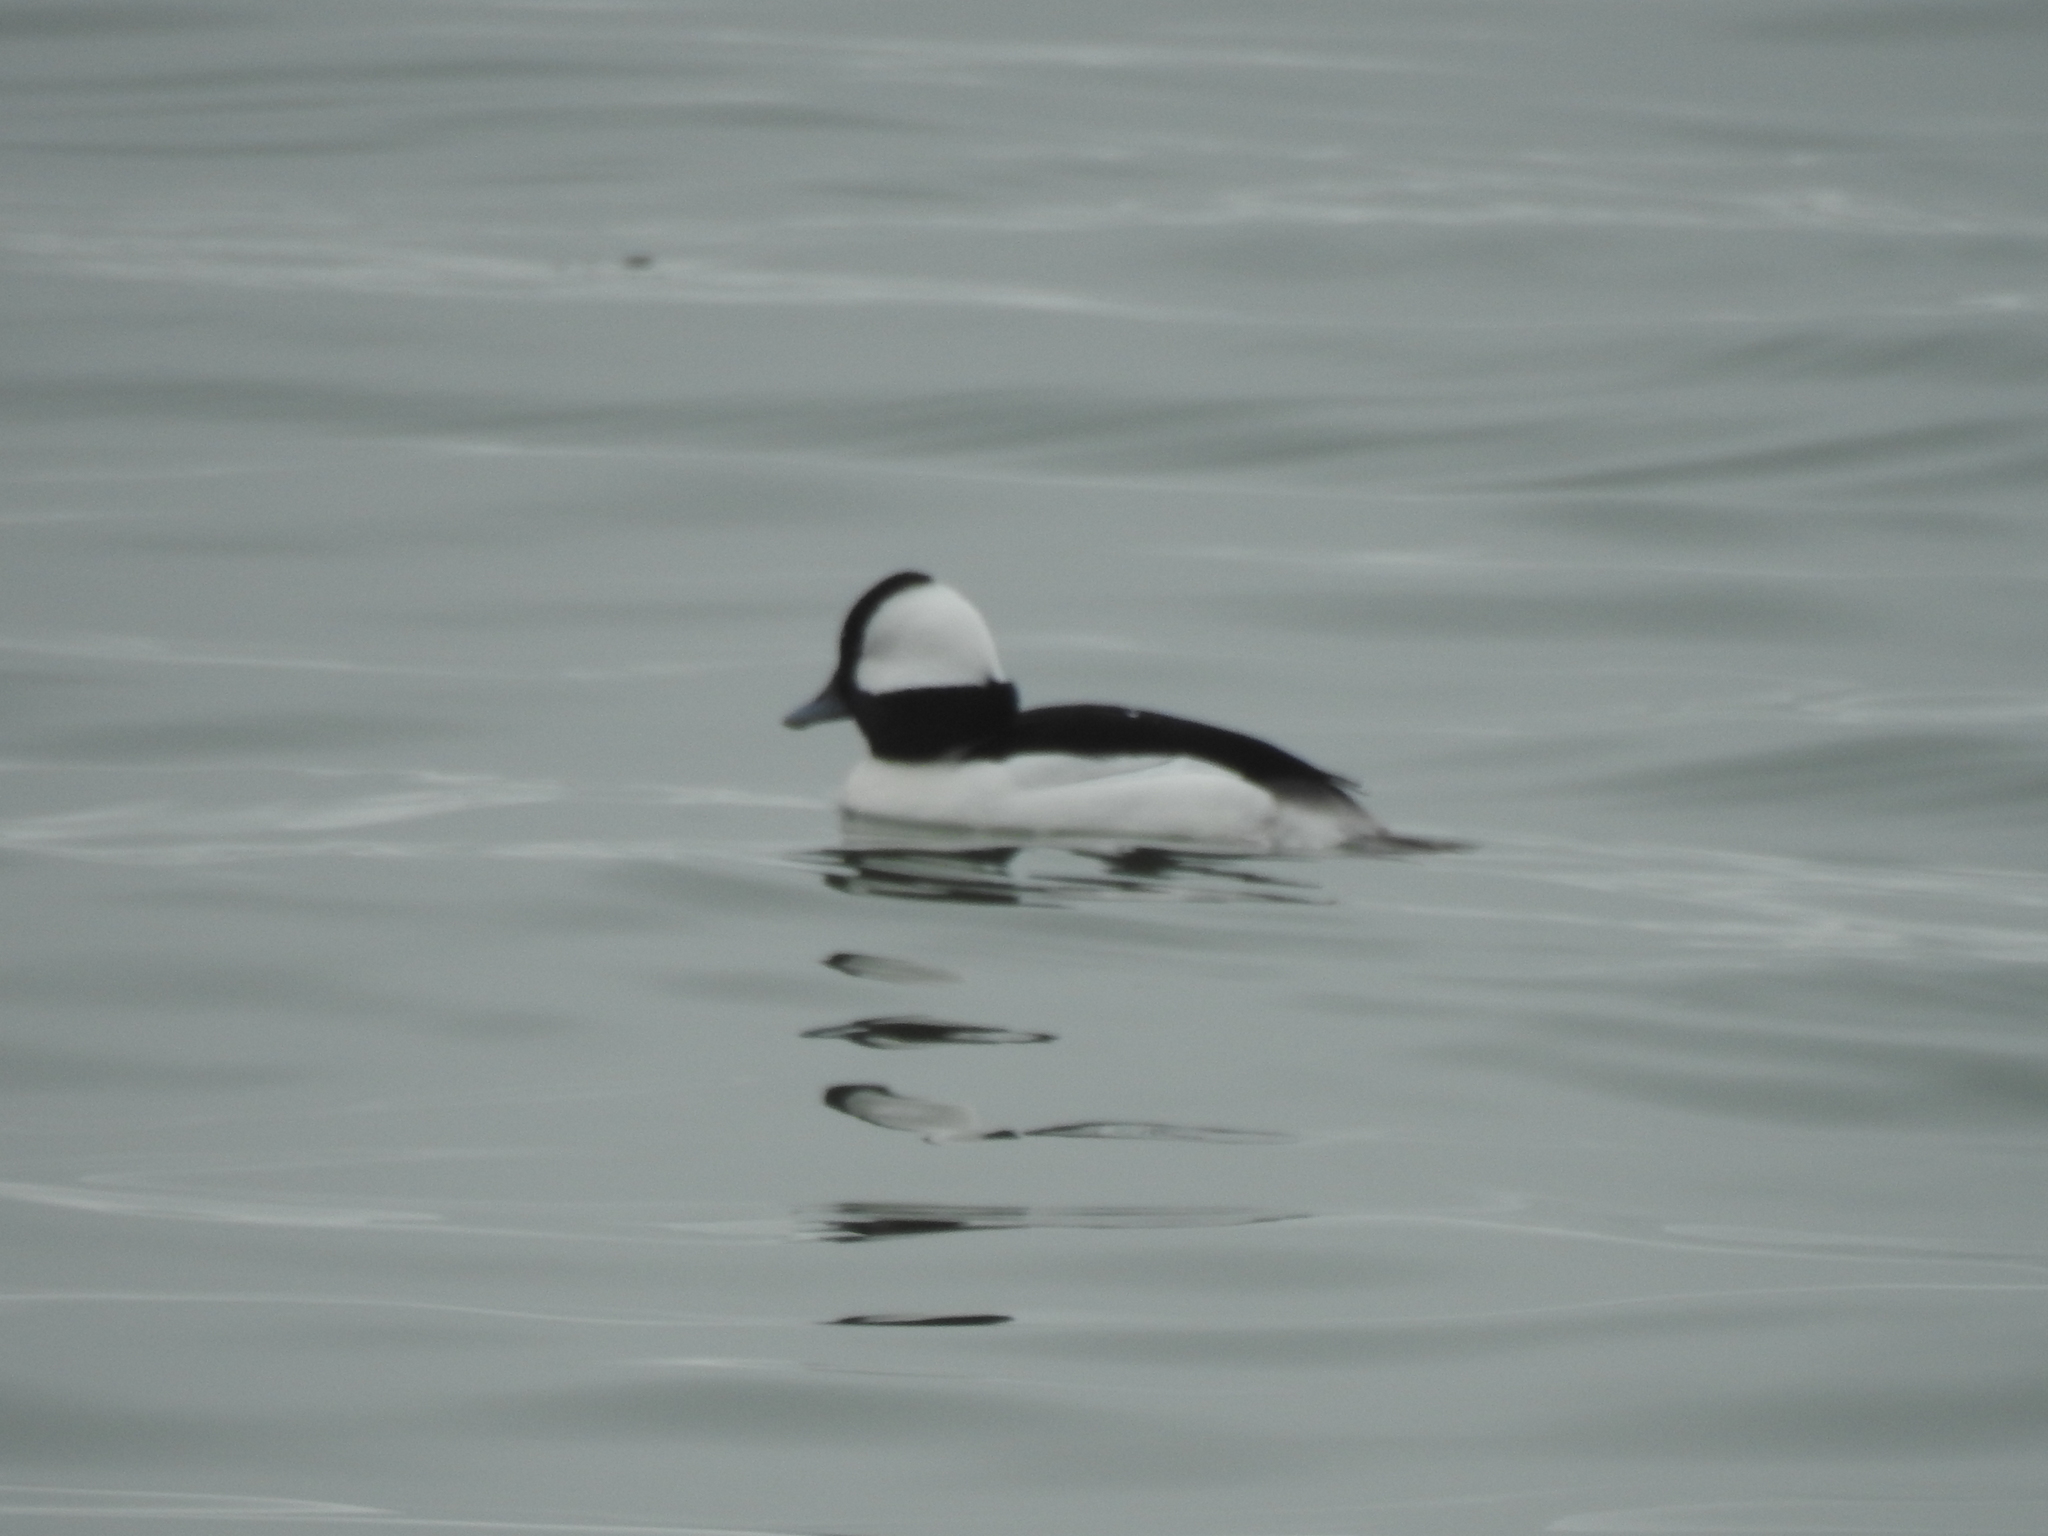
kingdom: Animalia
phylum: Chordata
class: Aves
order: Anseriformes
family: Anatidae
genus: Bucephala
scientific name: Bucephala albeola
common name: Bufflehead
